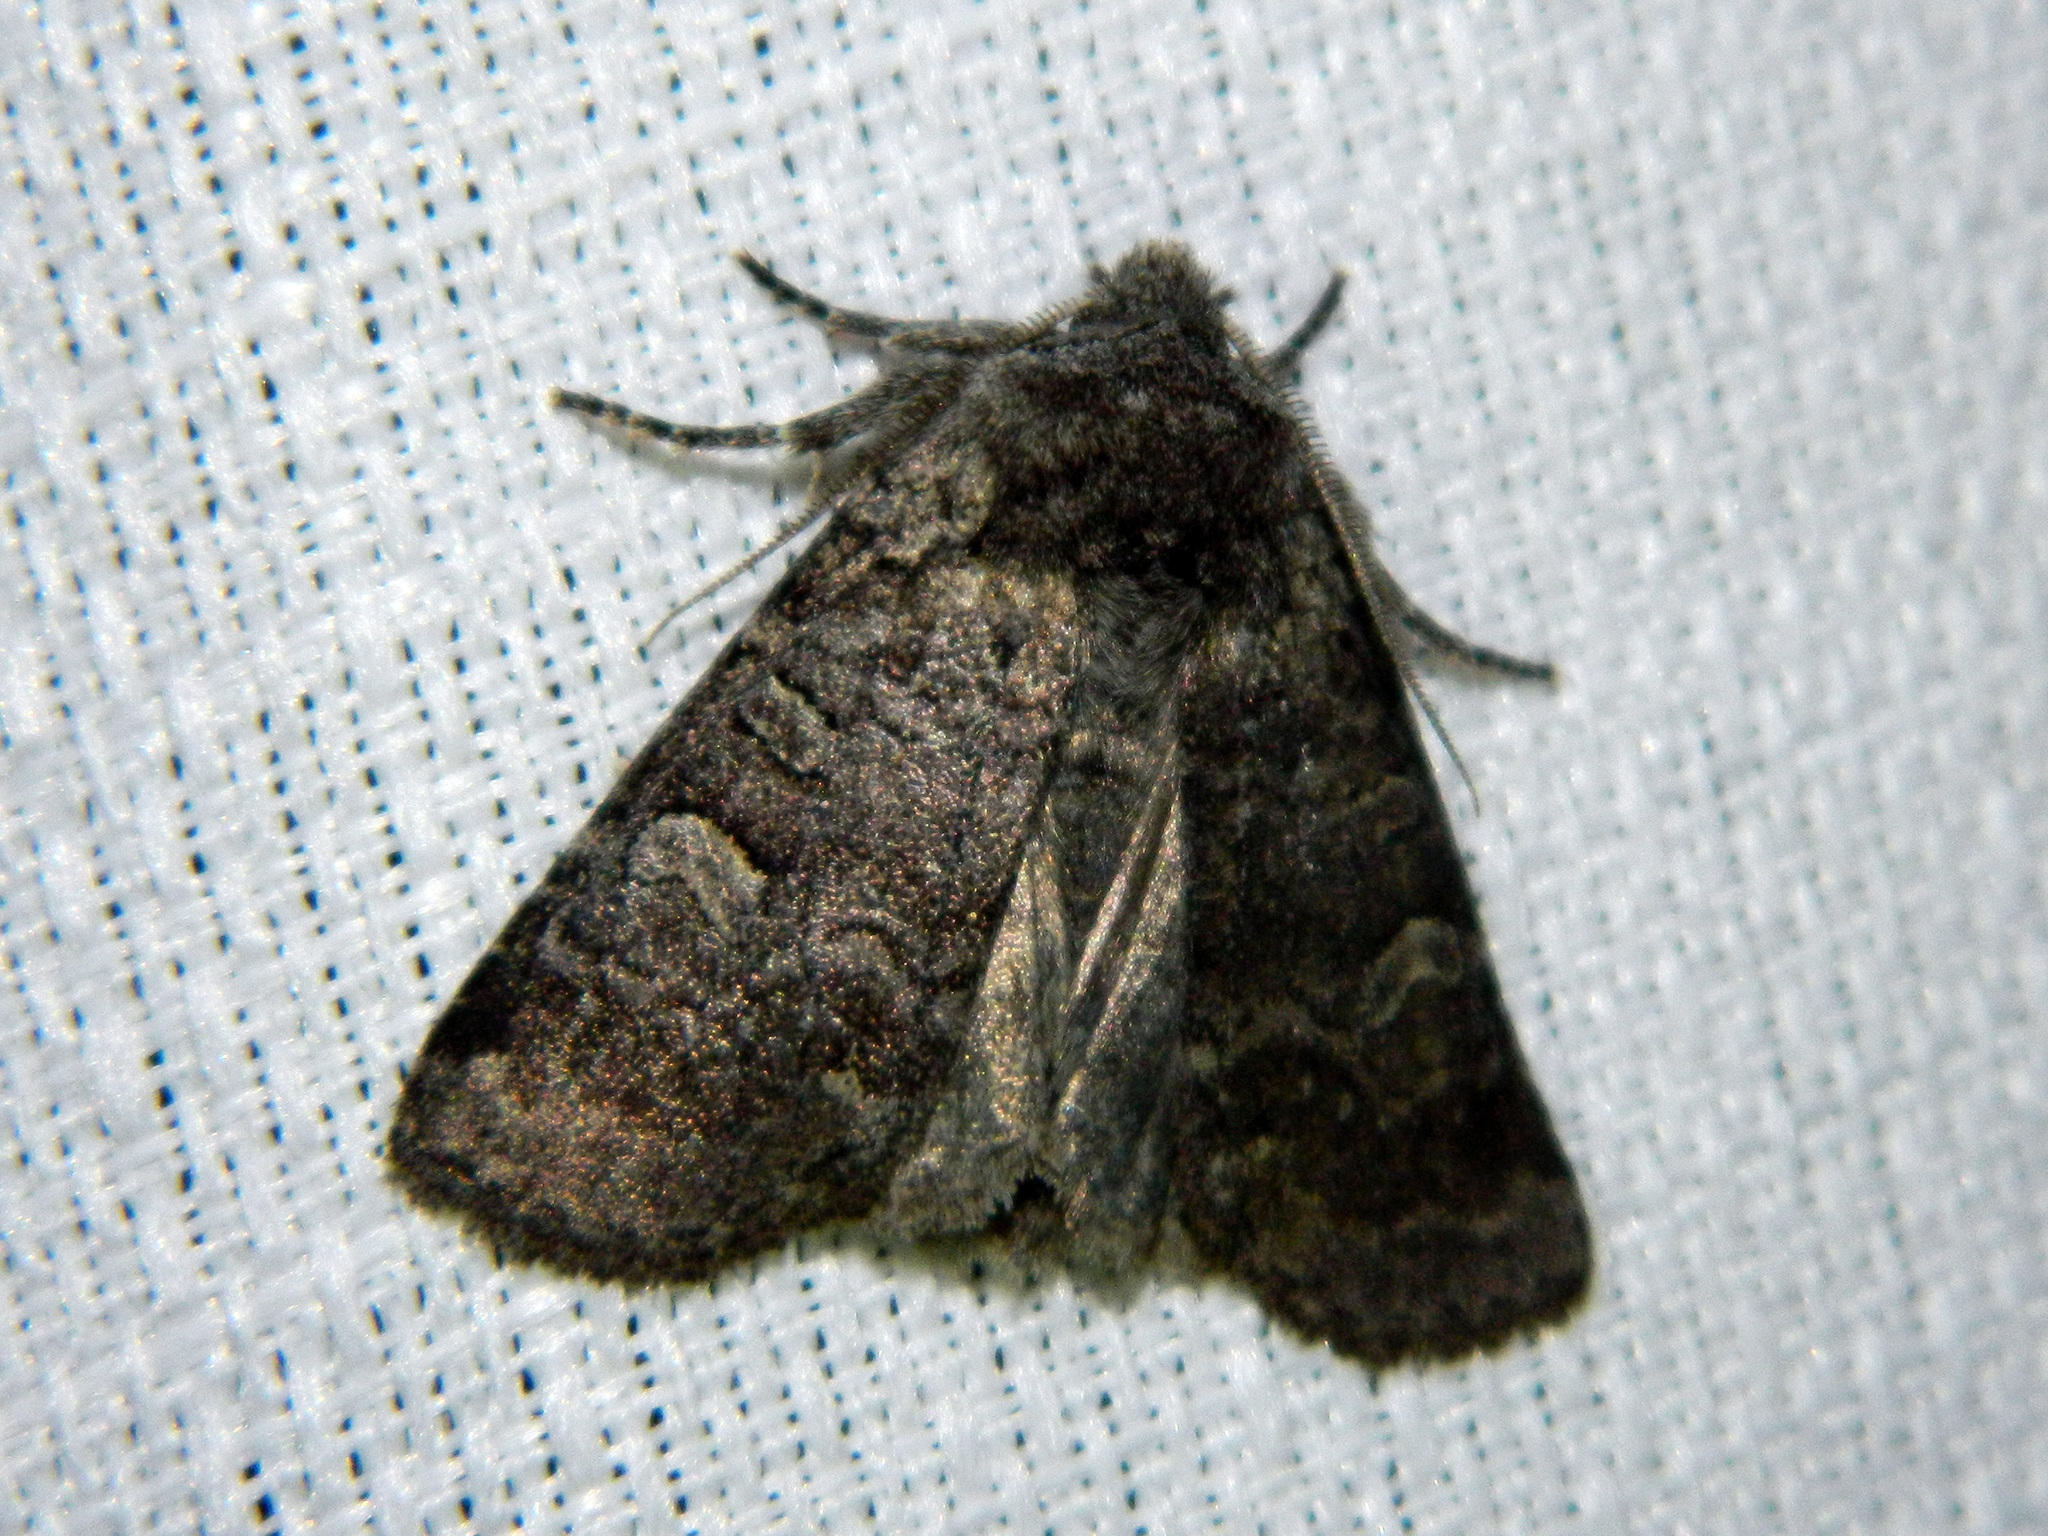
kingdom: Animalia
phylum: Arthropoda
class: Insecta
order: Lepidoptera
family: Noctuidae
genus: Brachylomia
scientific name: Brachylomia algens
